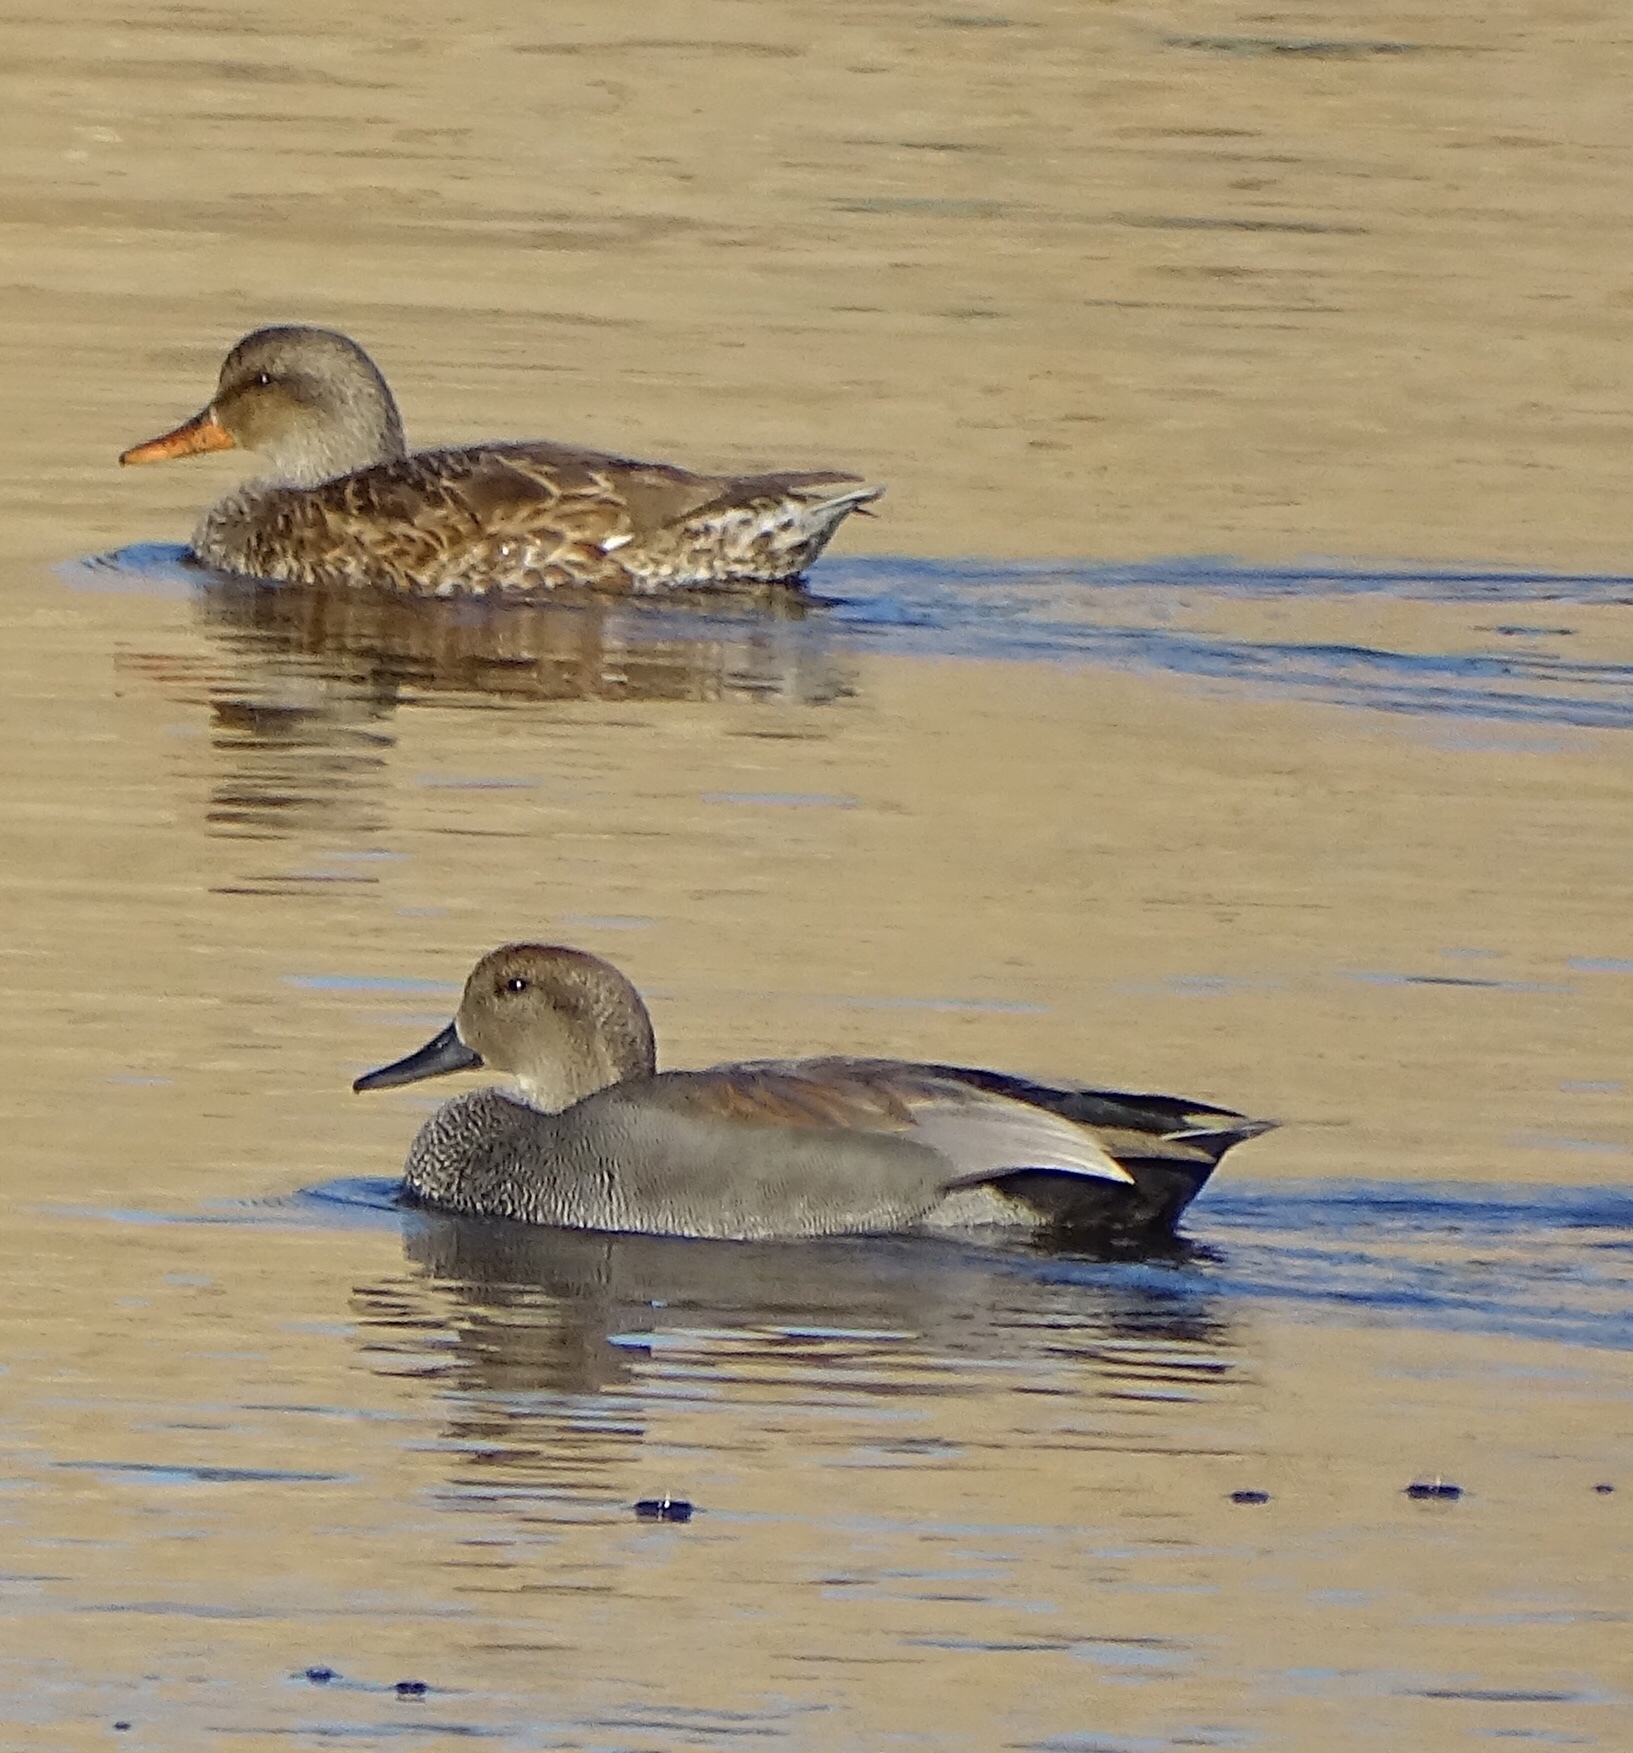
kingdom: Animalia
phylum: Chordata
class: Aves
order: Anseriformes
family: Anatidae
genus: Mareca
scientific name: Mareca strepera
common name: Gadwall
